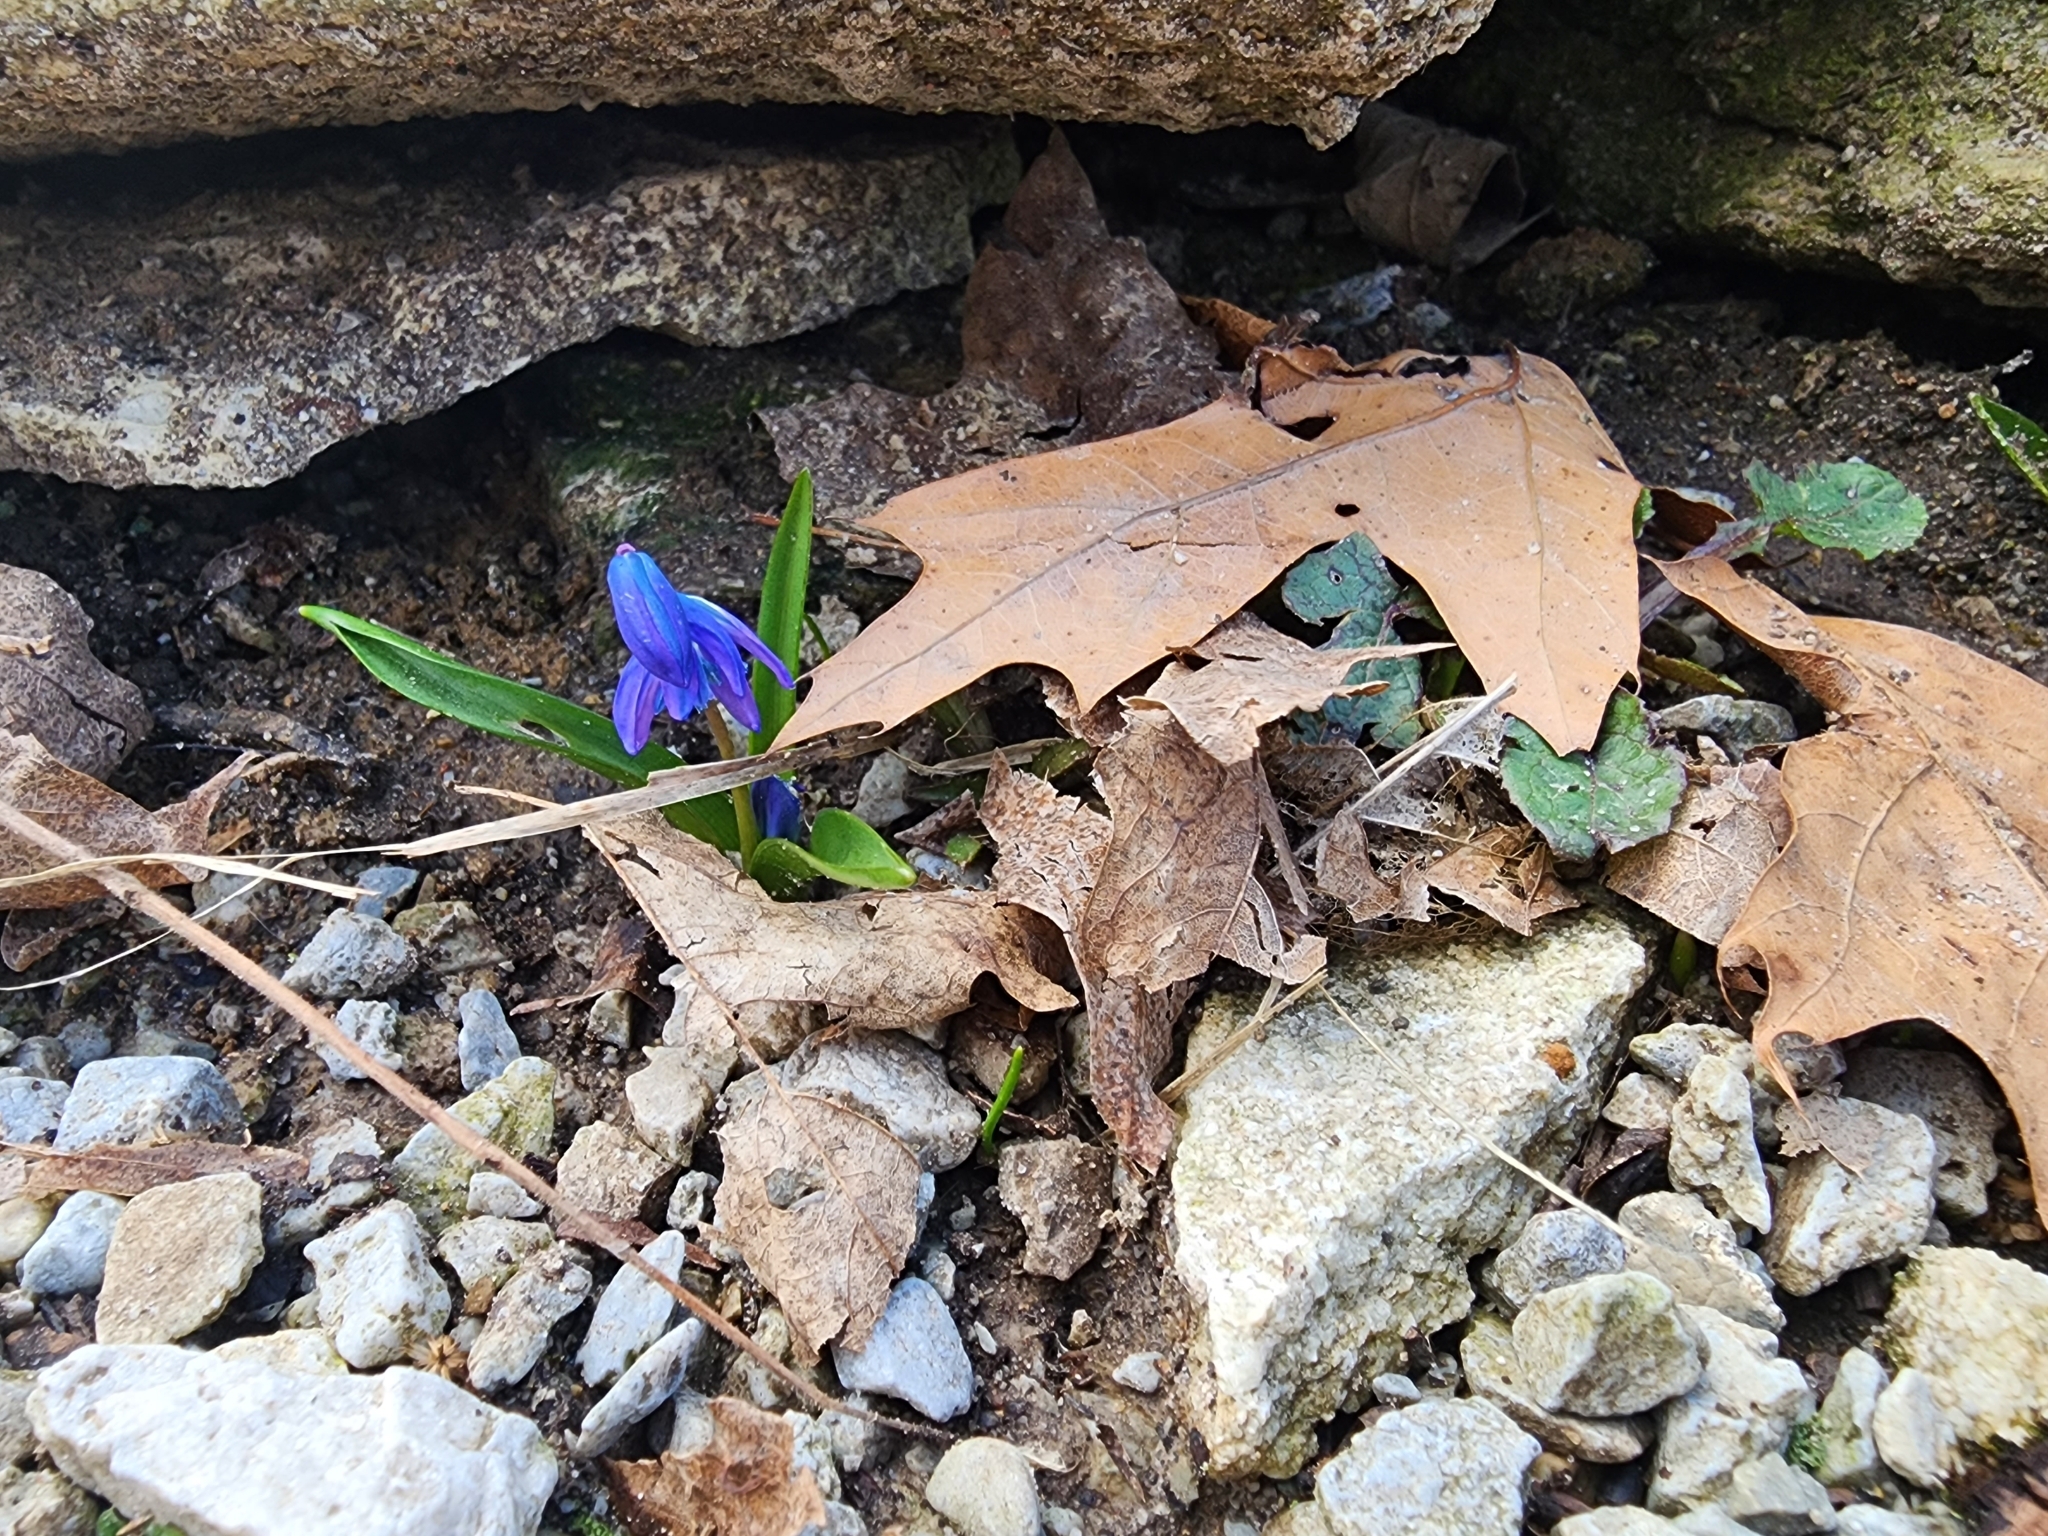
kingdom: Plantae
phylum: Tracheophyta
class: Liliopsida
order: Asparagales
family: Asparagaceae
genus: Scilla
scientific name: Scilla siberica
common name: Siberian squill
